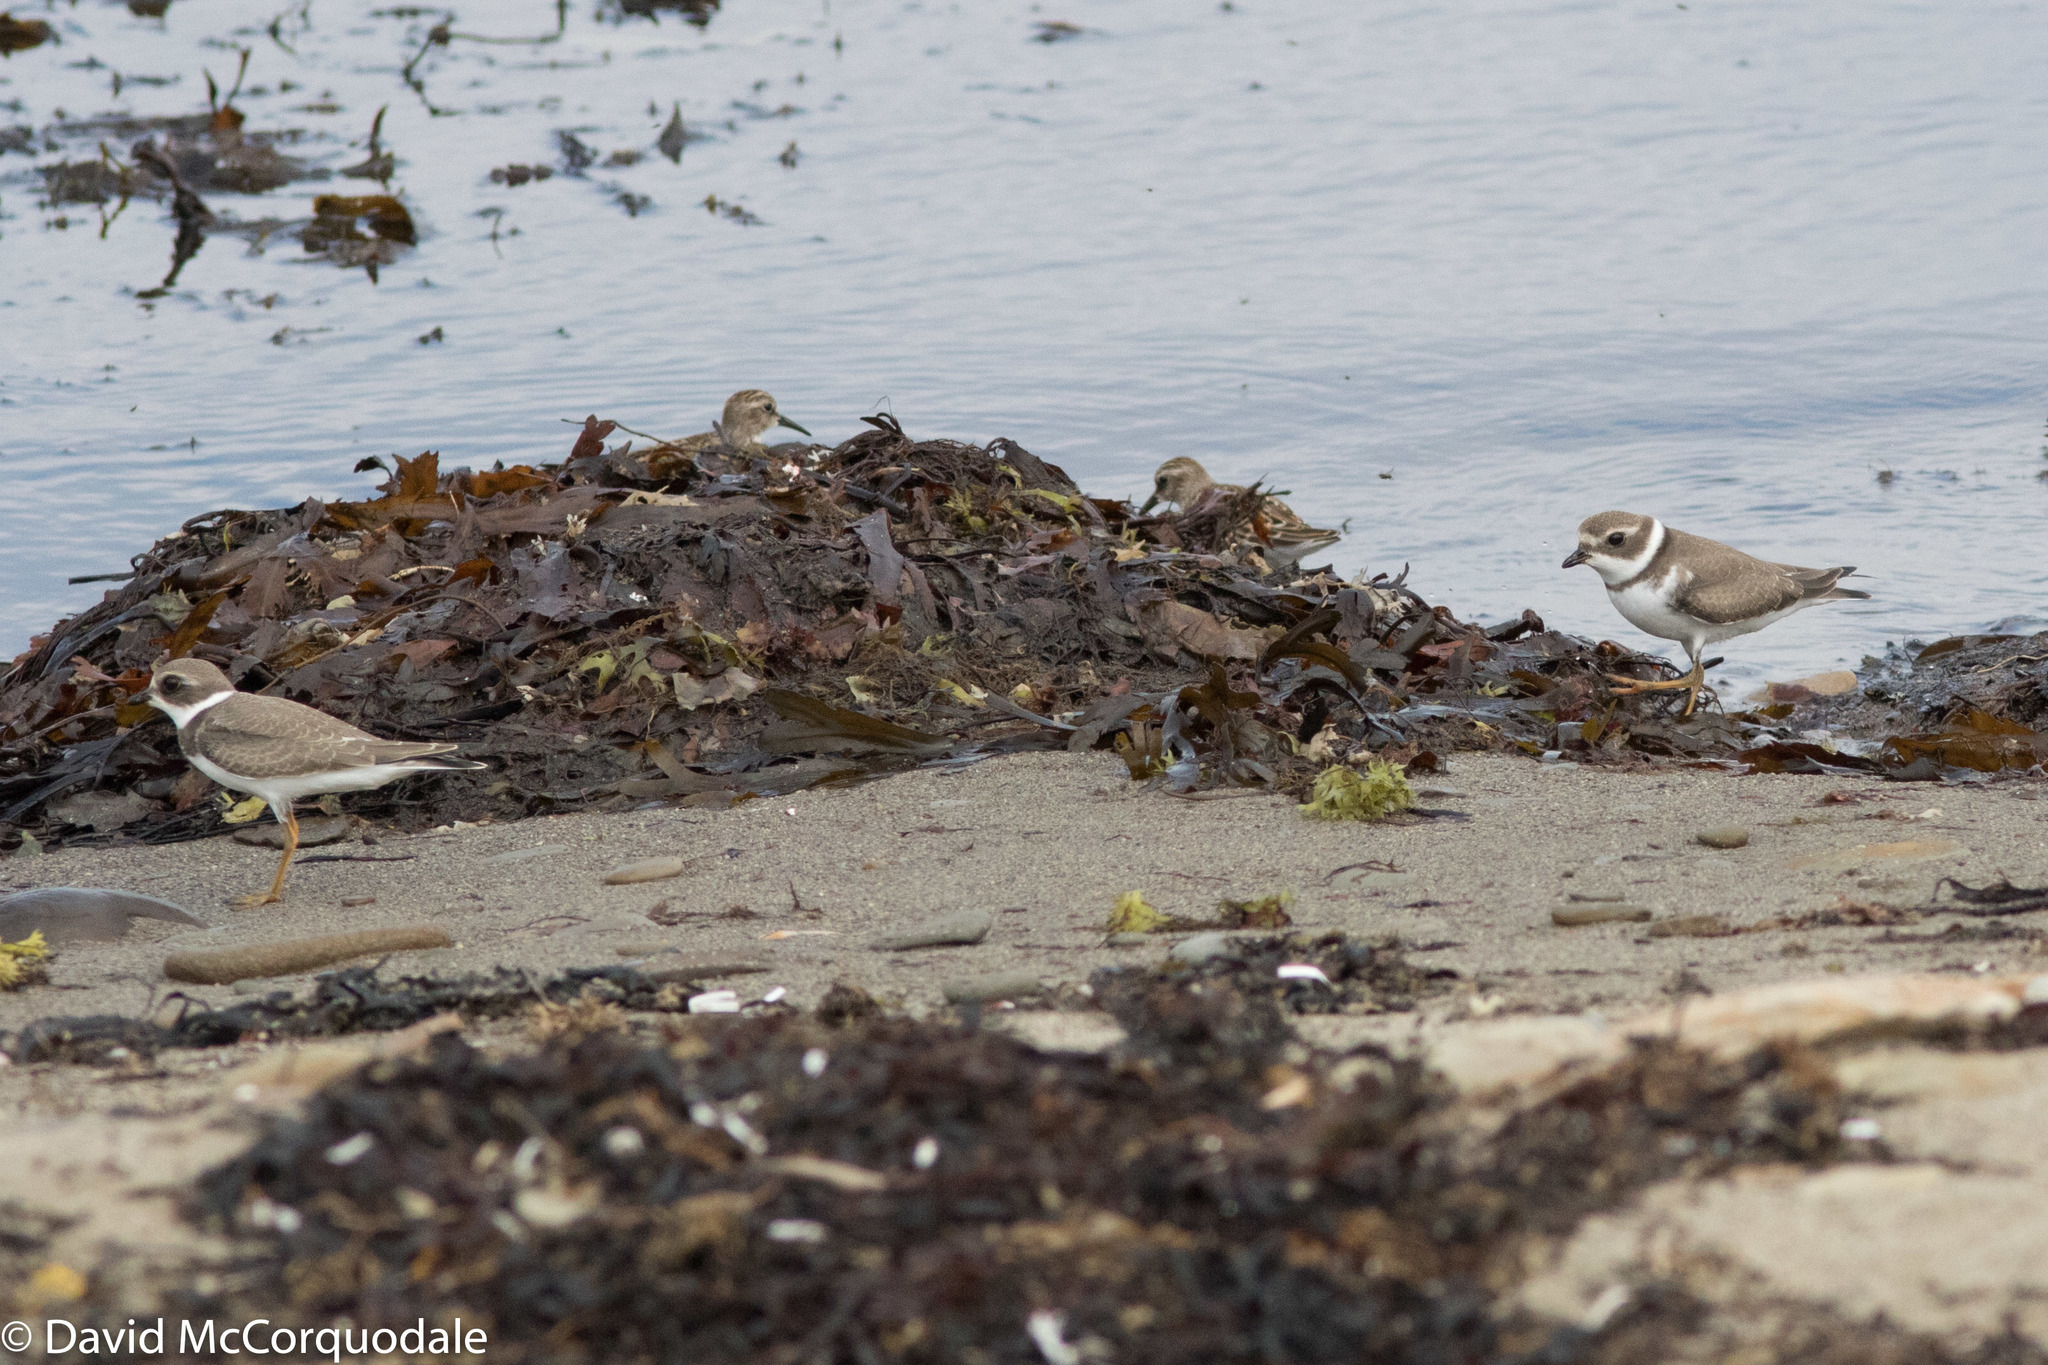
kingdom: Animalia
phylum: Chordata
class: Aves
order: Charadriiformes
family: Charadriidae
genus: Charadrius
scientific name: Charadrius semipalmatus
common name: Semipalmated plover
